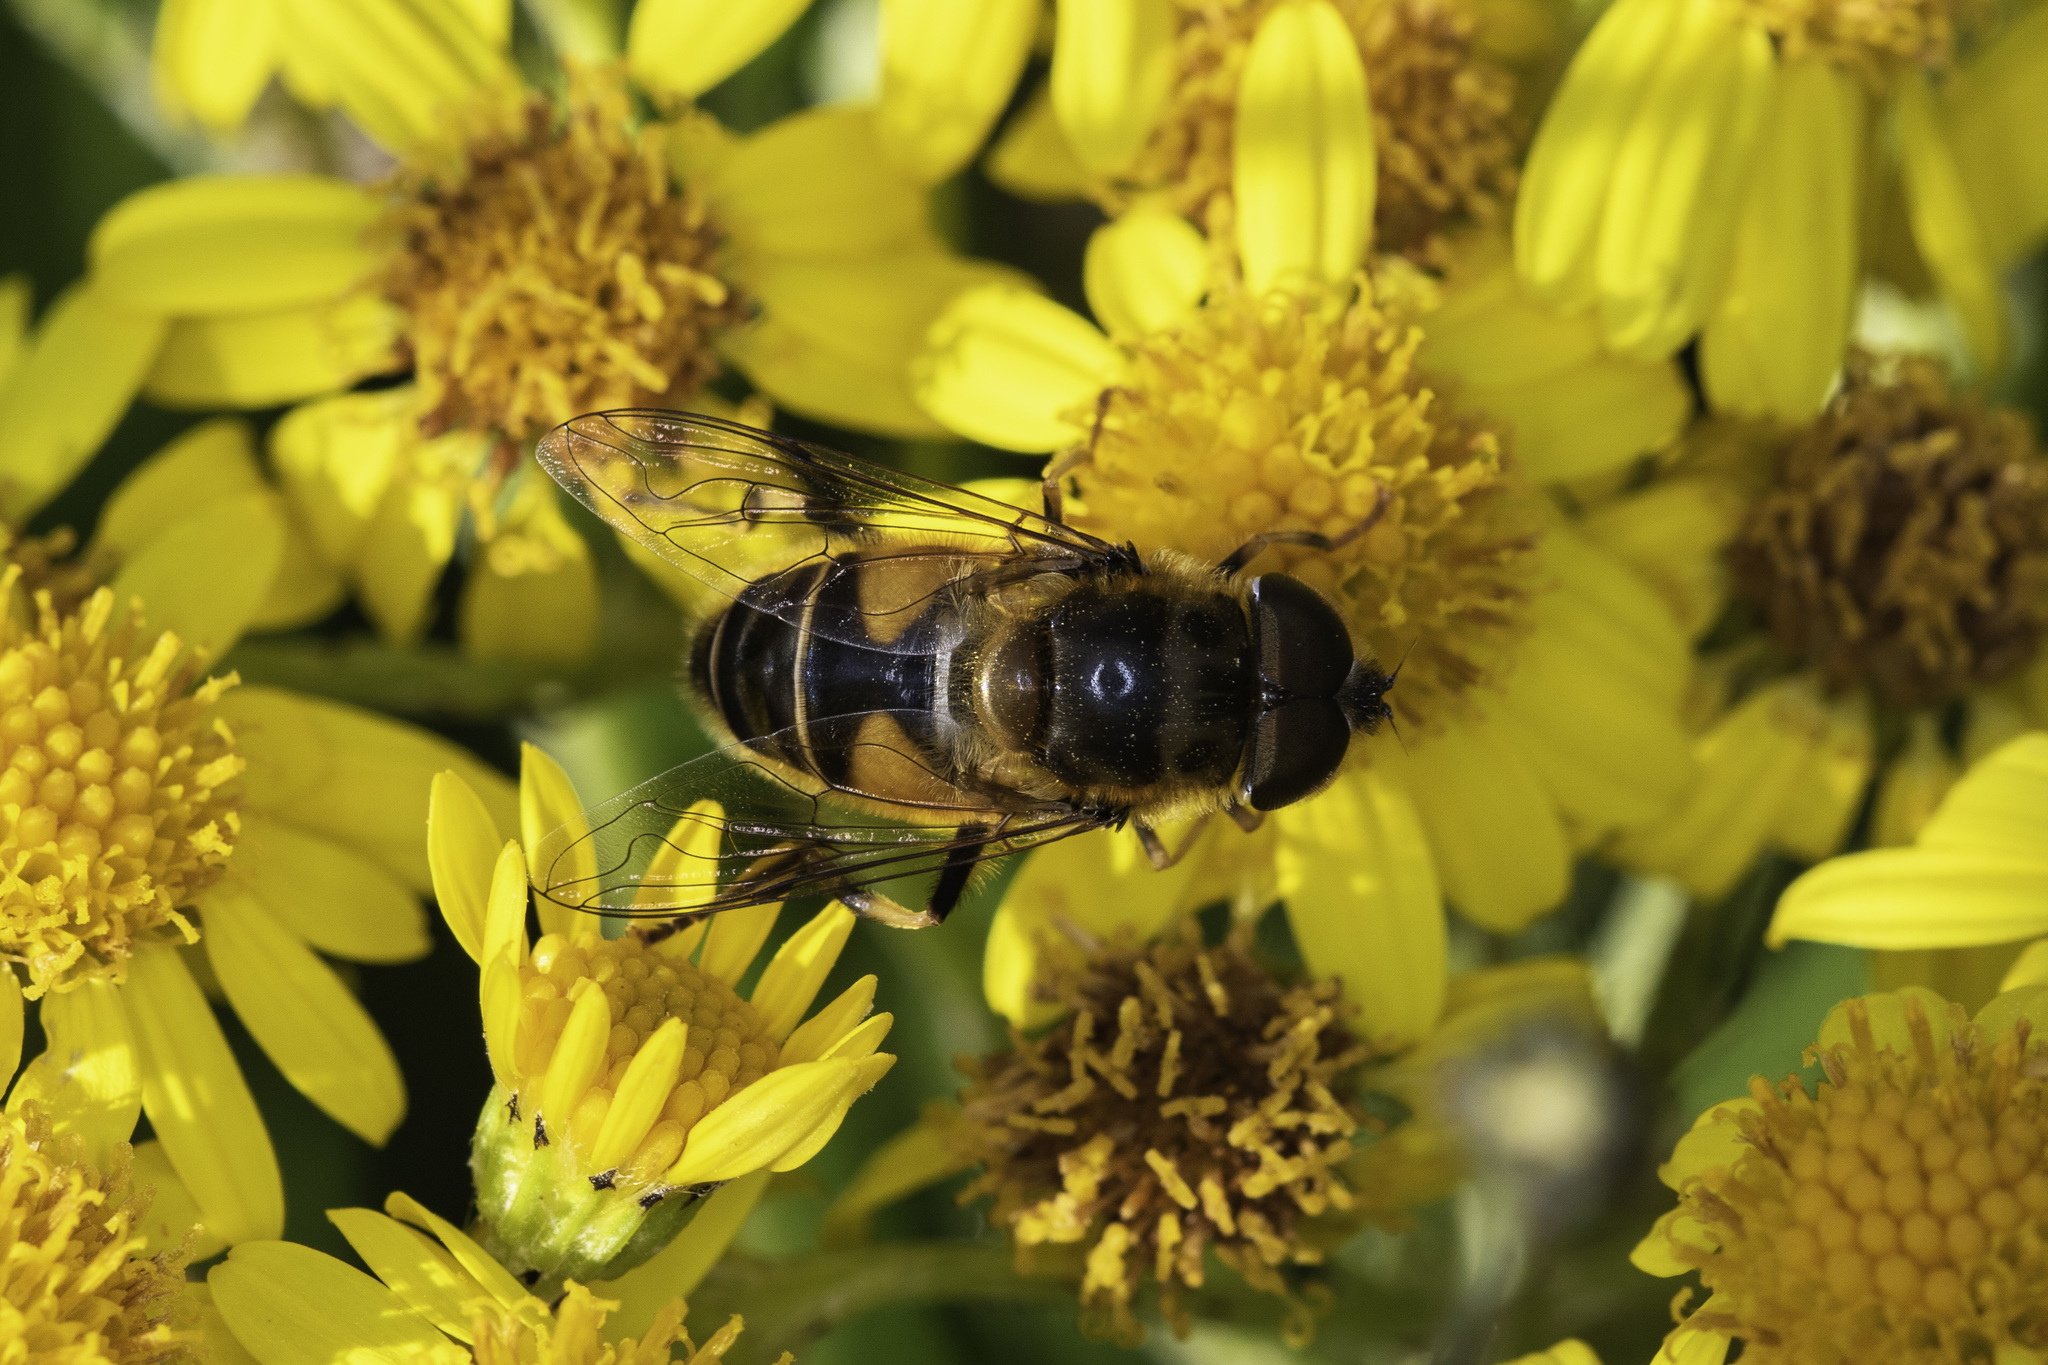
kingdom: Animalia
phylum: Arthropoda
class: Insecta
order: Diptera
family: Syrphidae
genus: Eristalis
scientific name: Eristalis pertinax
